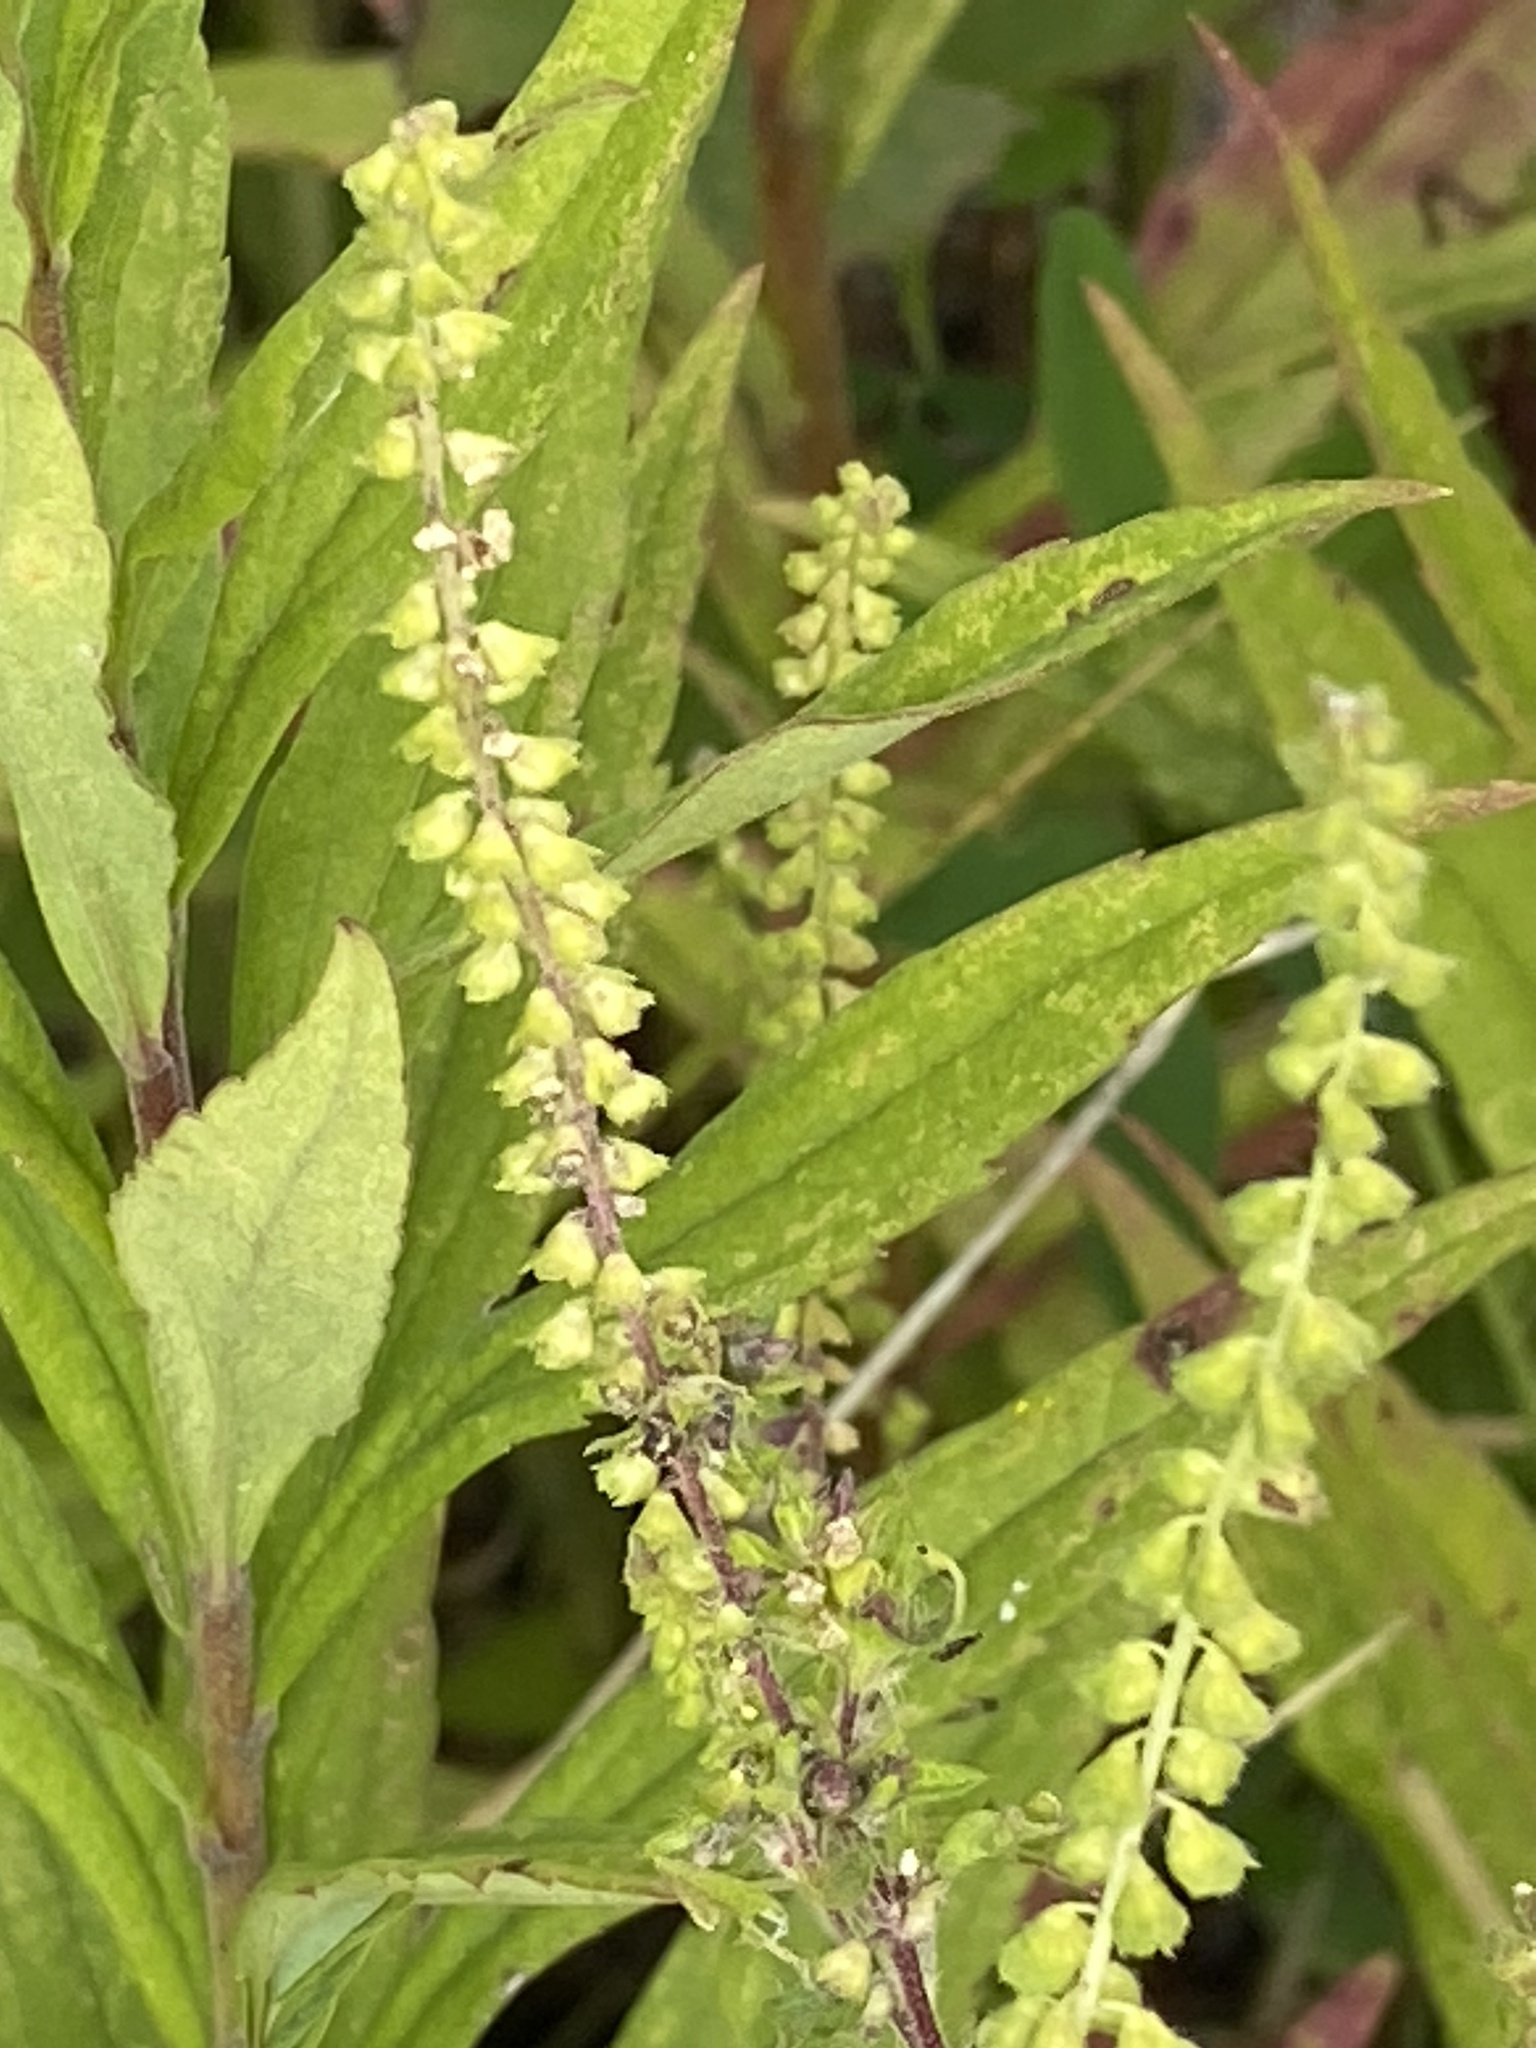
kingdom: Plantae
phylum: Tracheophyta
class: Magnoliopsida
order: Asterales
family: Asteraceae
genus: Ambrosia
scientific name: Ambrosia artemisiifolia
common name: Annual ragweed
